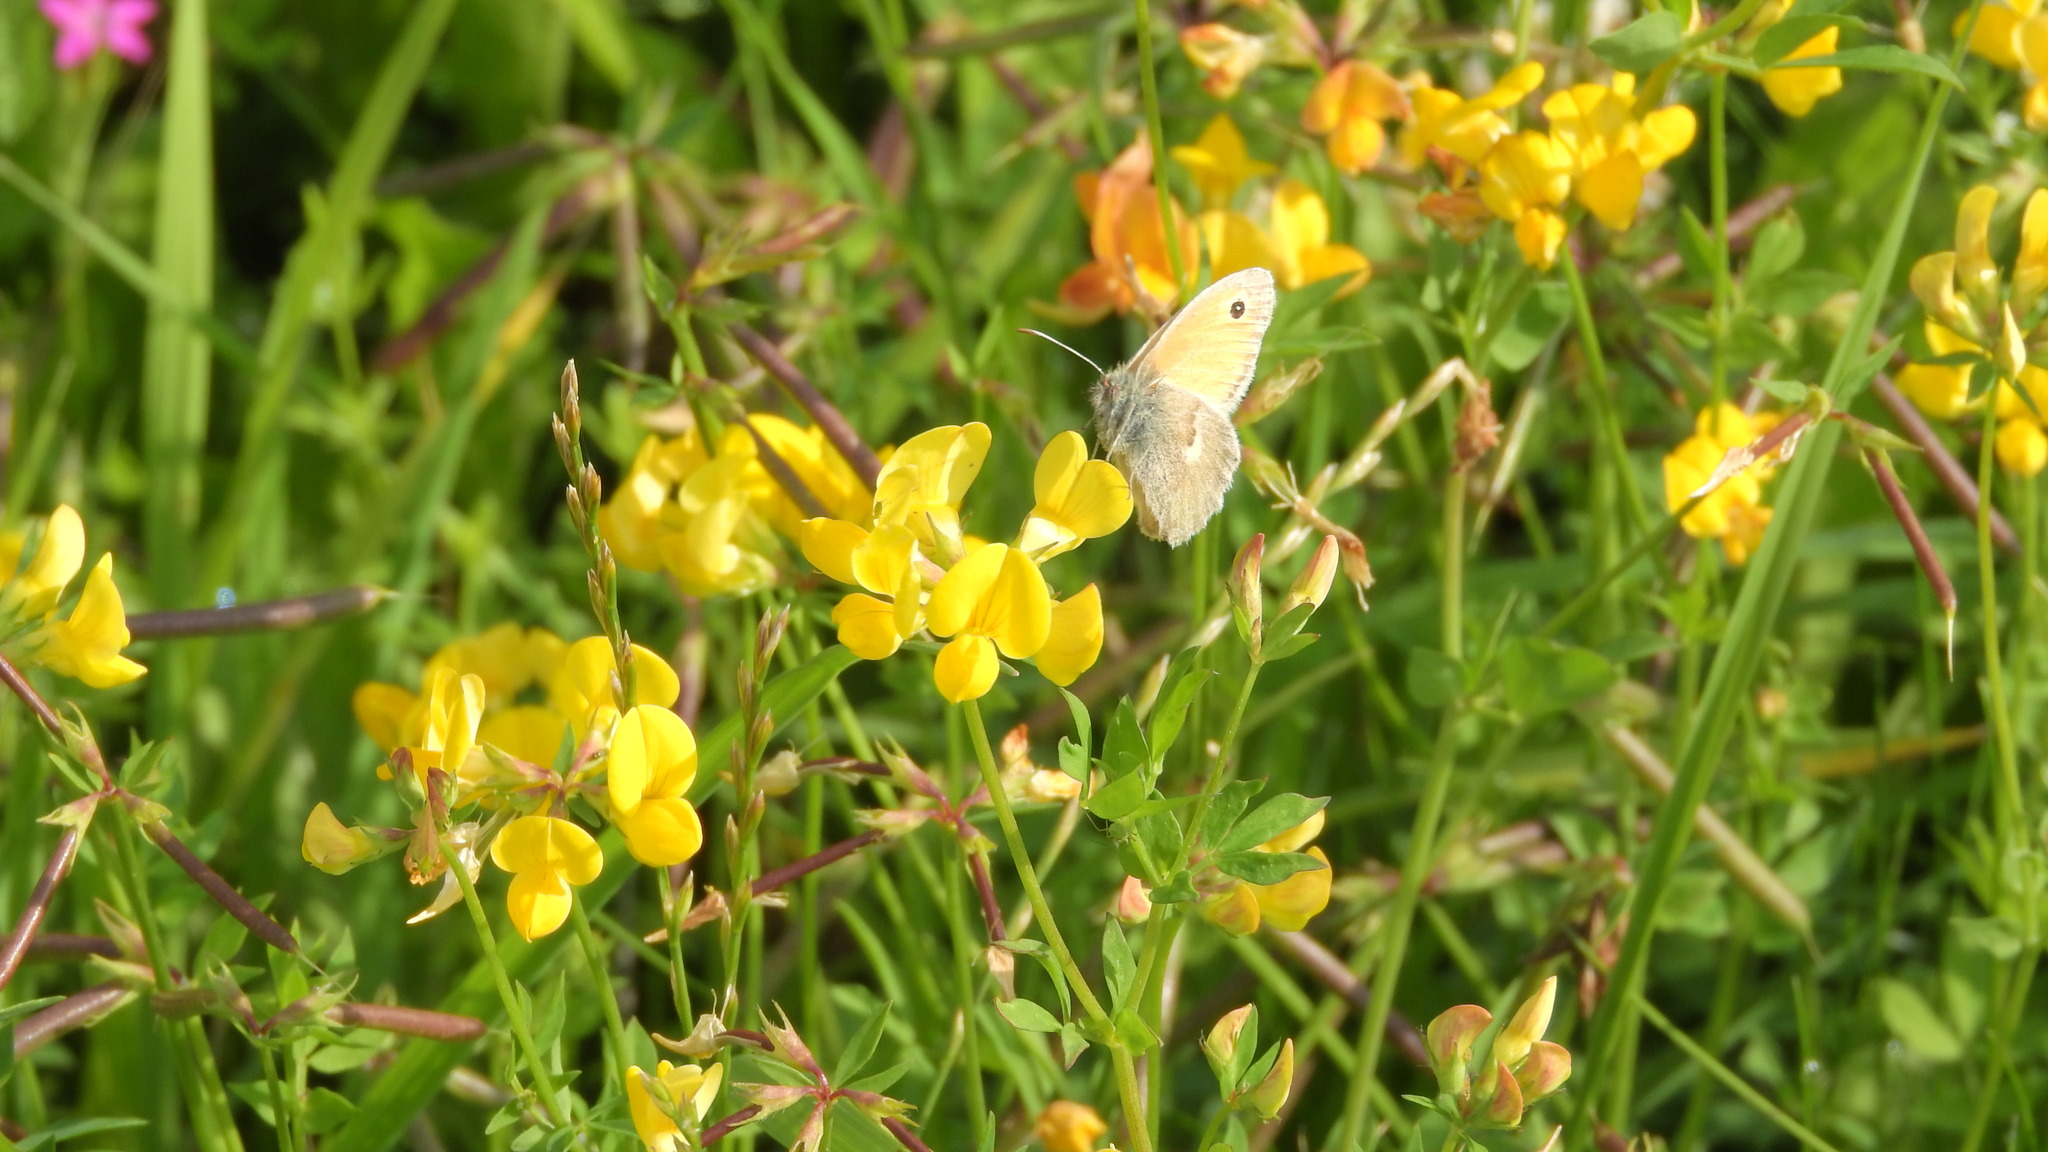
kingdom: Animalia
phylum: Arthropoda
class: Insecta
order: Lepidoptera
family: Nymphalidae
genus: Coenonympha
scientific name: Coenonympha pamphilus
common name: Small heath
